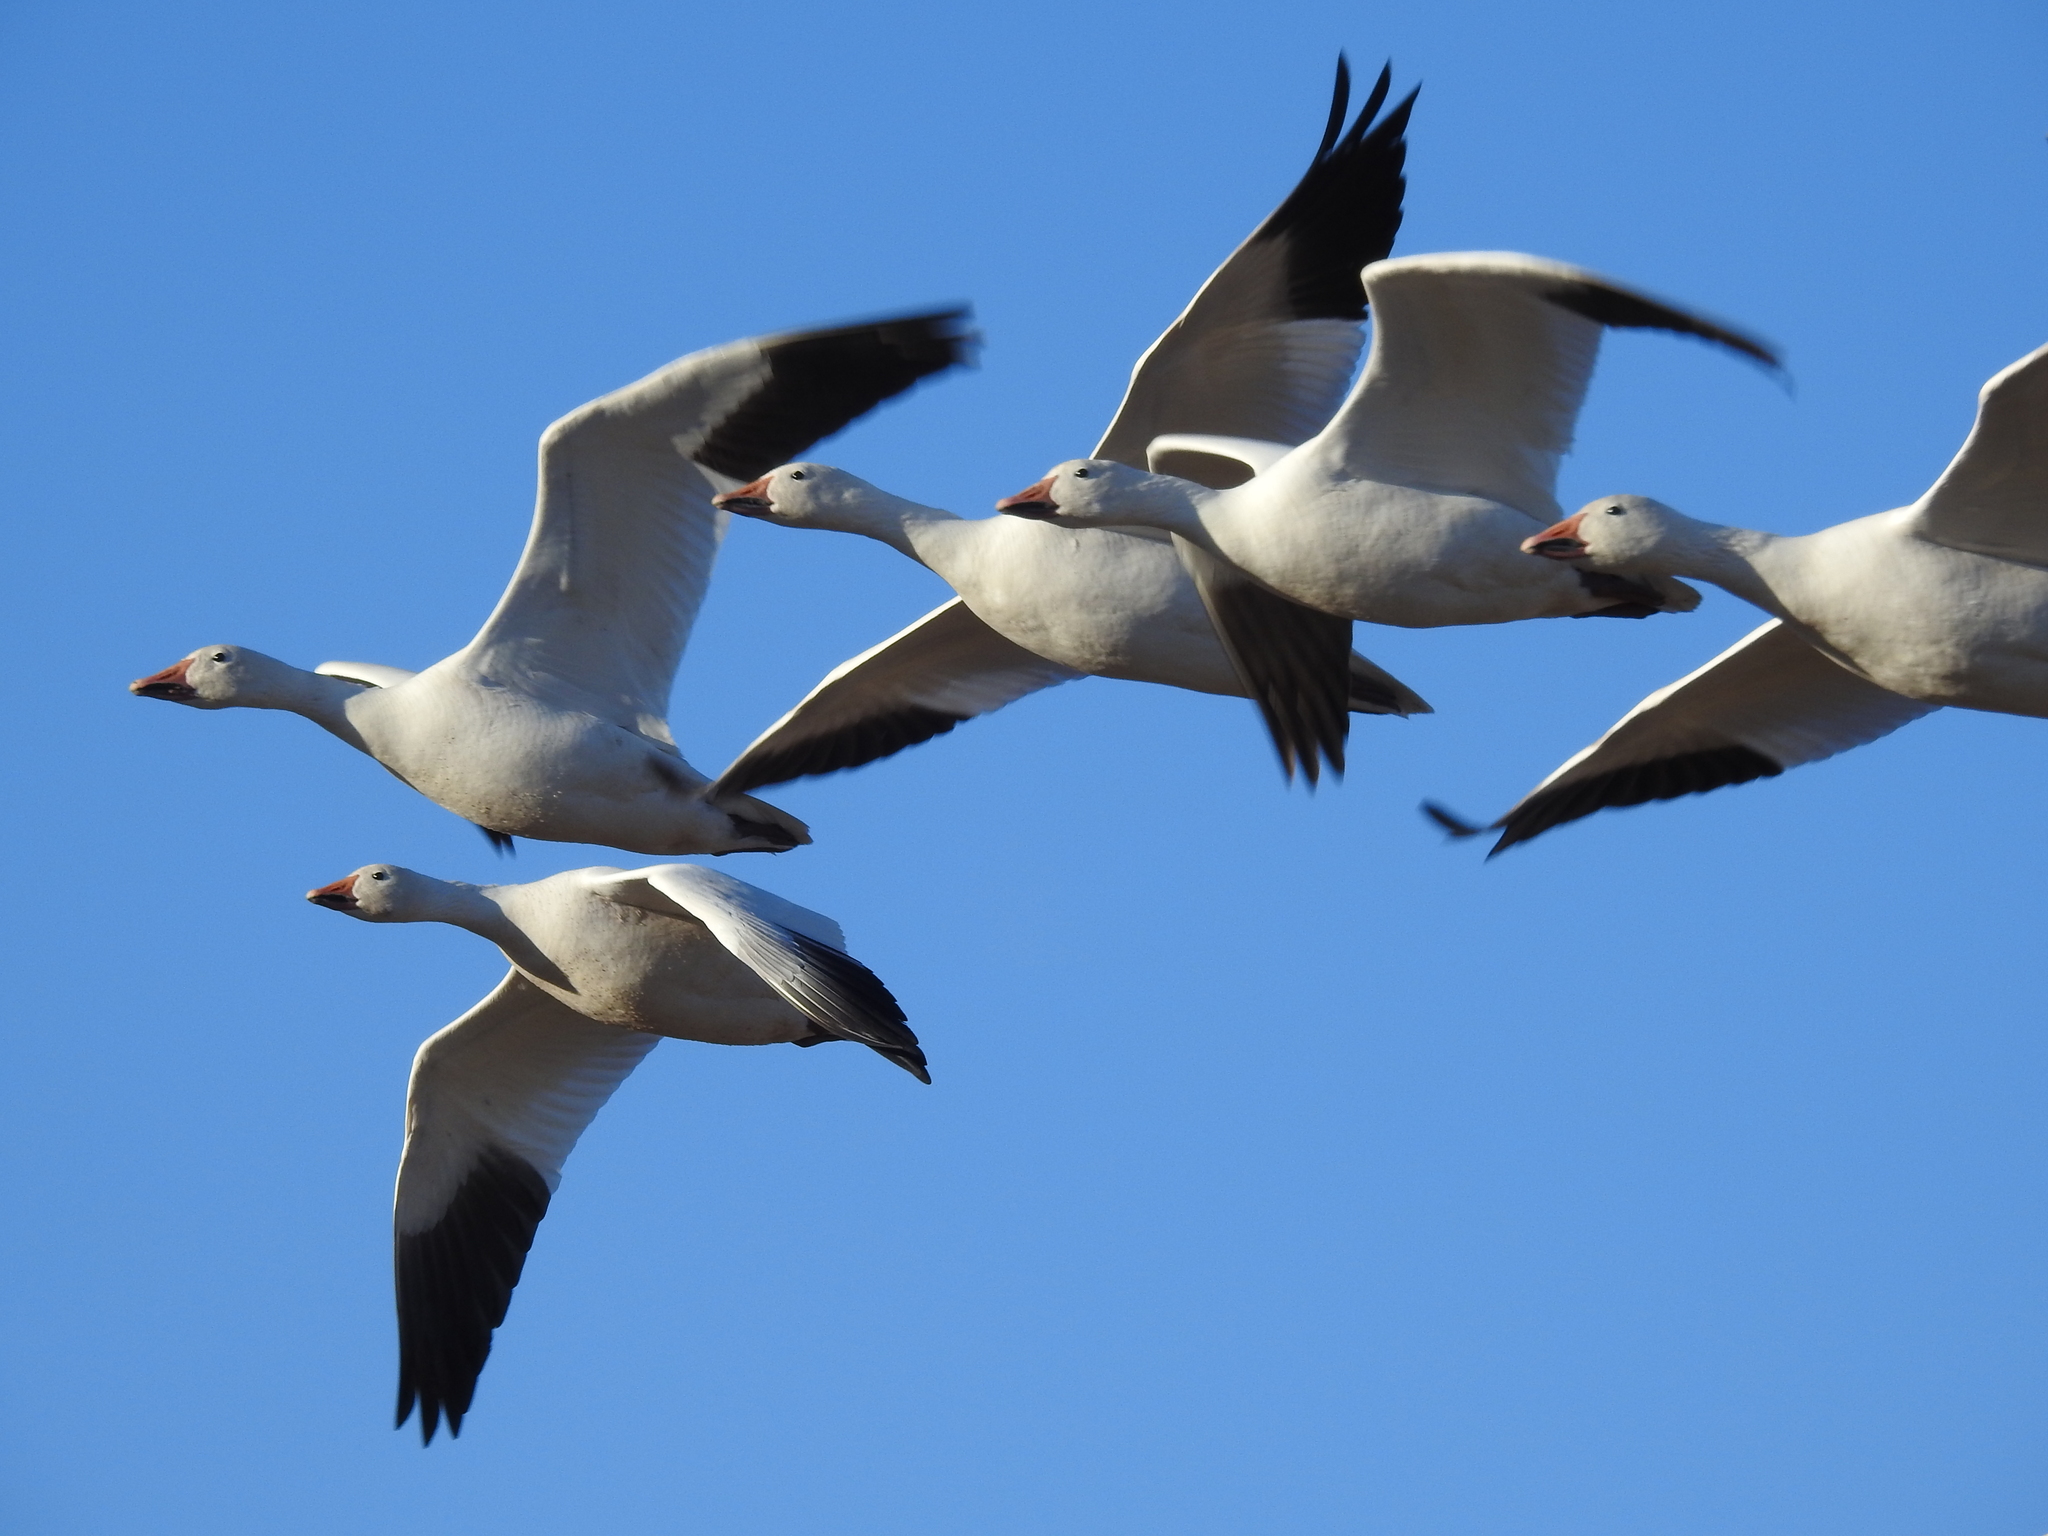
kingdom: Animalia
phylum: Chordata
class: Aves
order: Anseriformes
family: Anatidae
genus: Anser
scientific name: Anser caerulescens
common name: Snow goose
